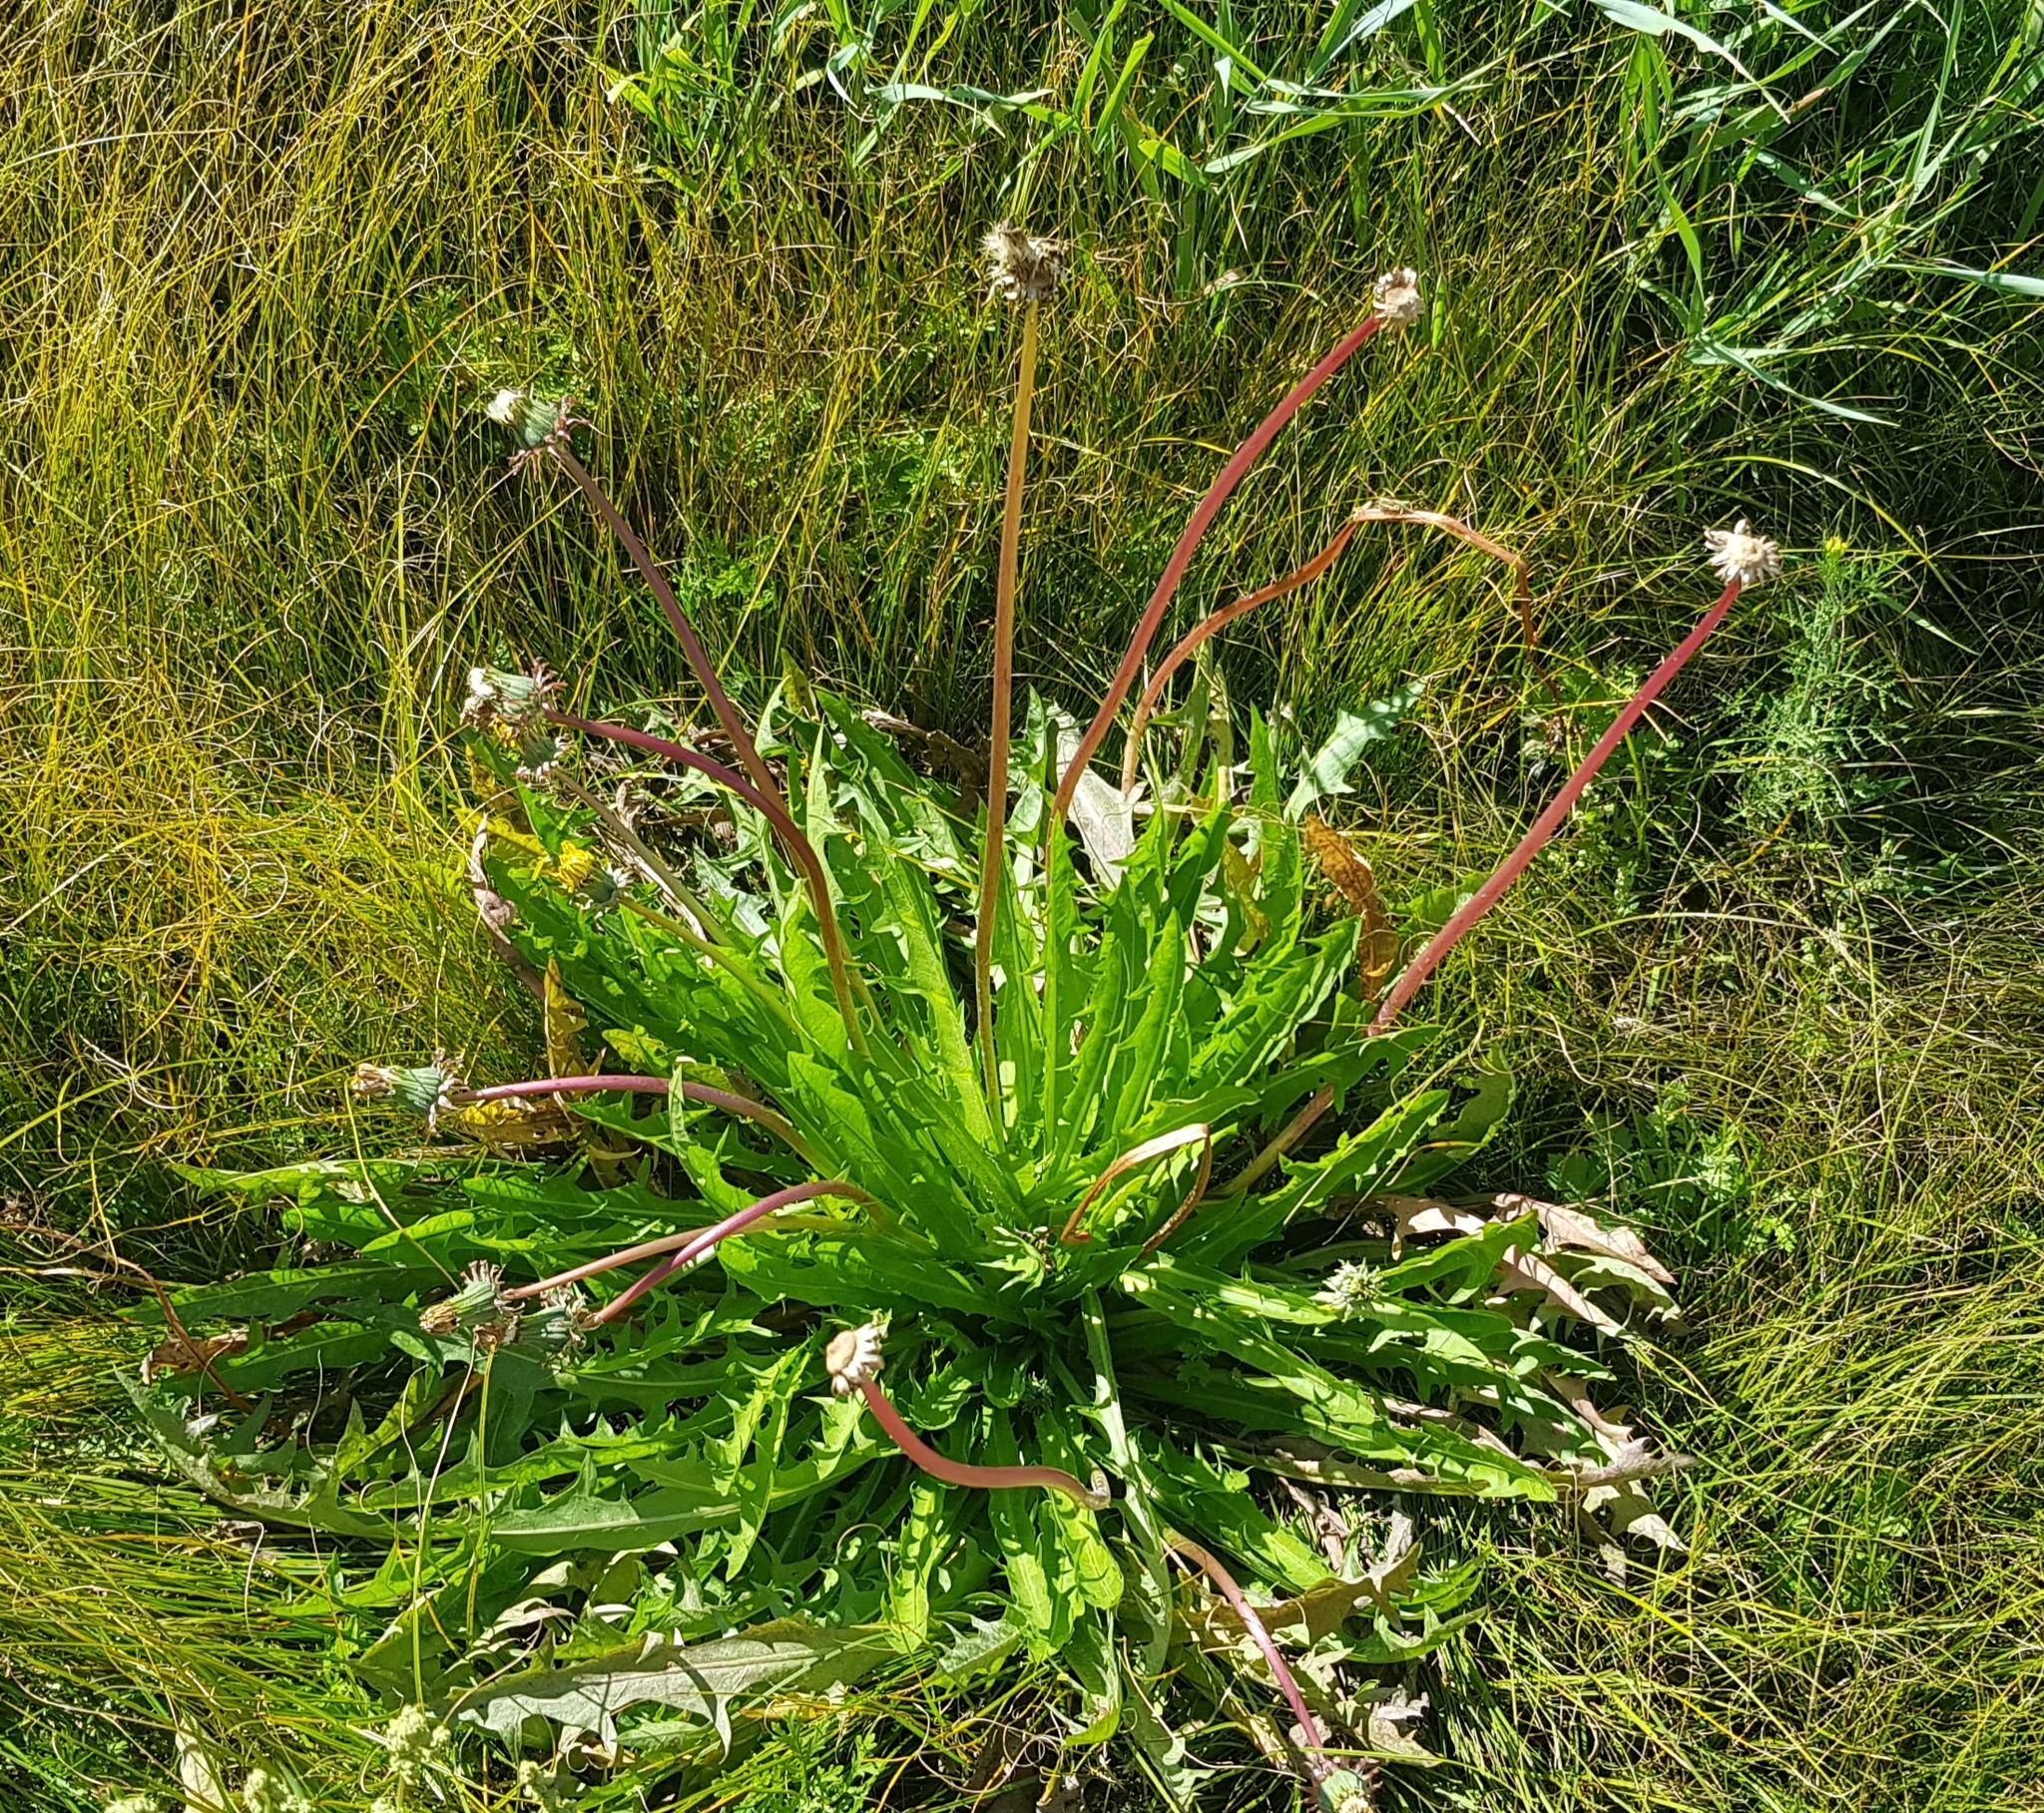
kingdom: Plantae
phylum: Tracheophyta
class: Magnoliopsida
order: Asterales
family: Asteraceae
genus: Taraxacum
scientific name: Taraxacum mongolicum
